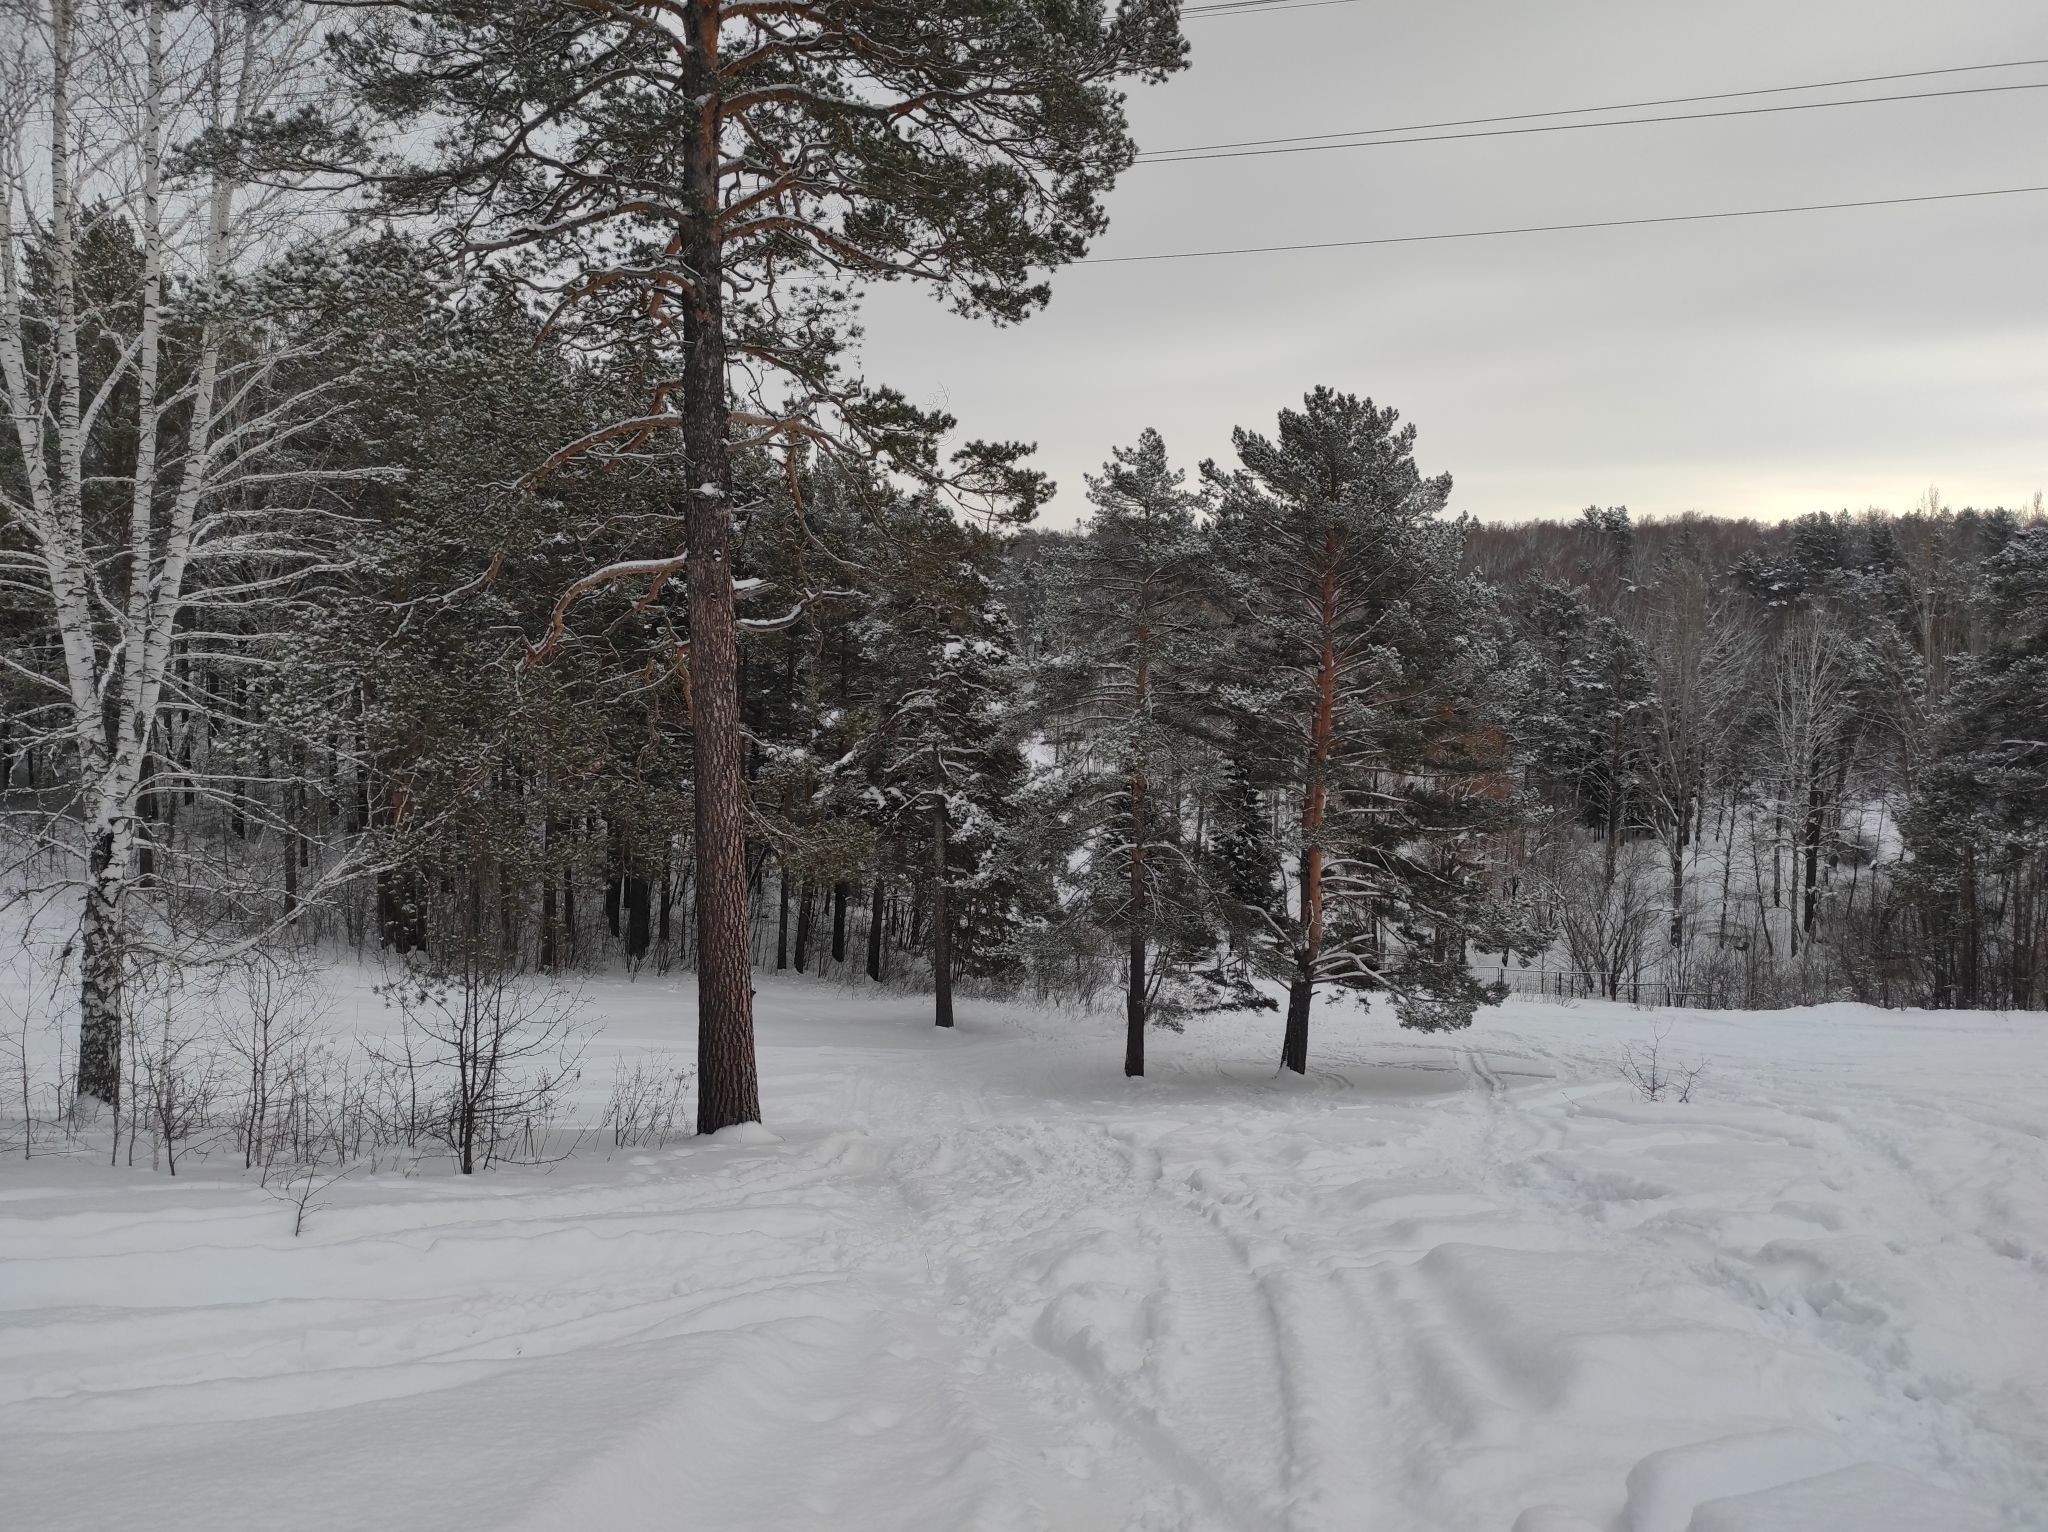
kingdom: Plantae
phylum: Tracheophyta
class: Pinopsida
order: Pinales
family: Pinaceae
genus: Pinus
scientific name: Pinus sylvestris
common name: Scots pine
